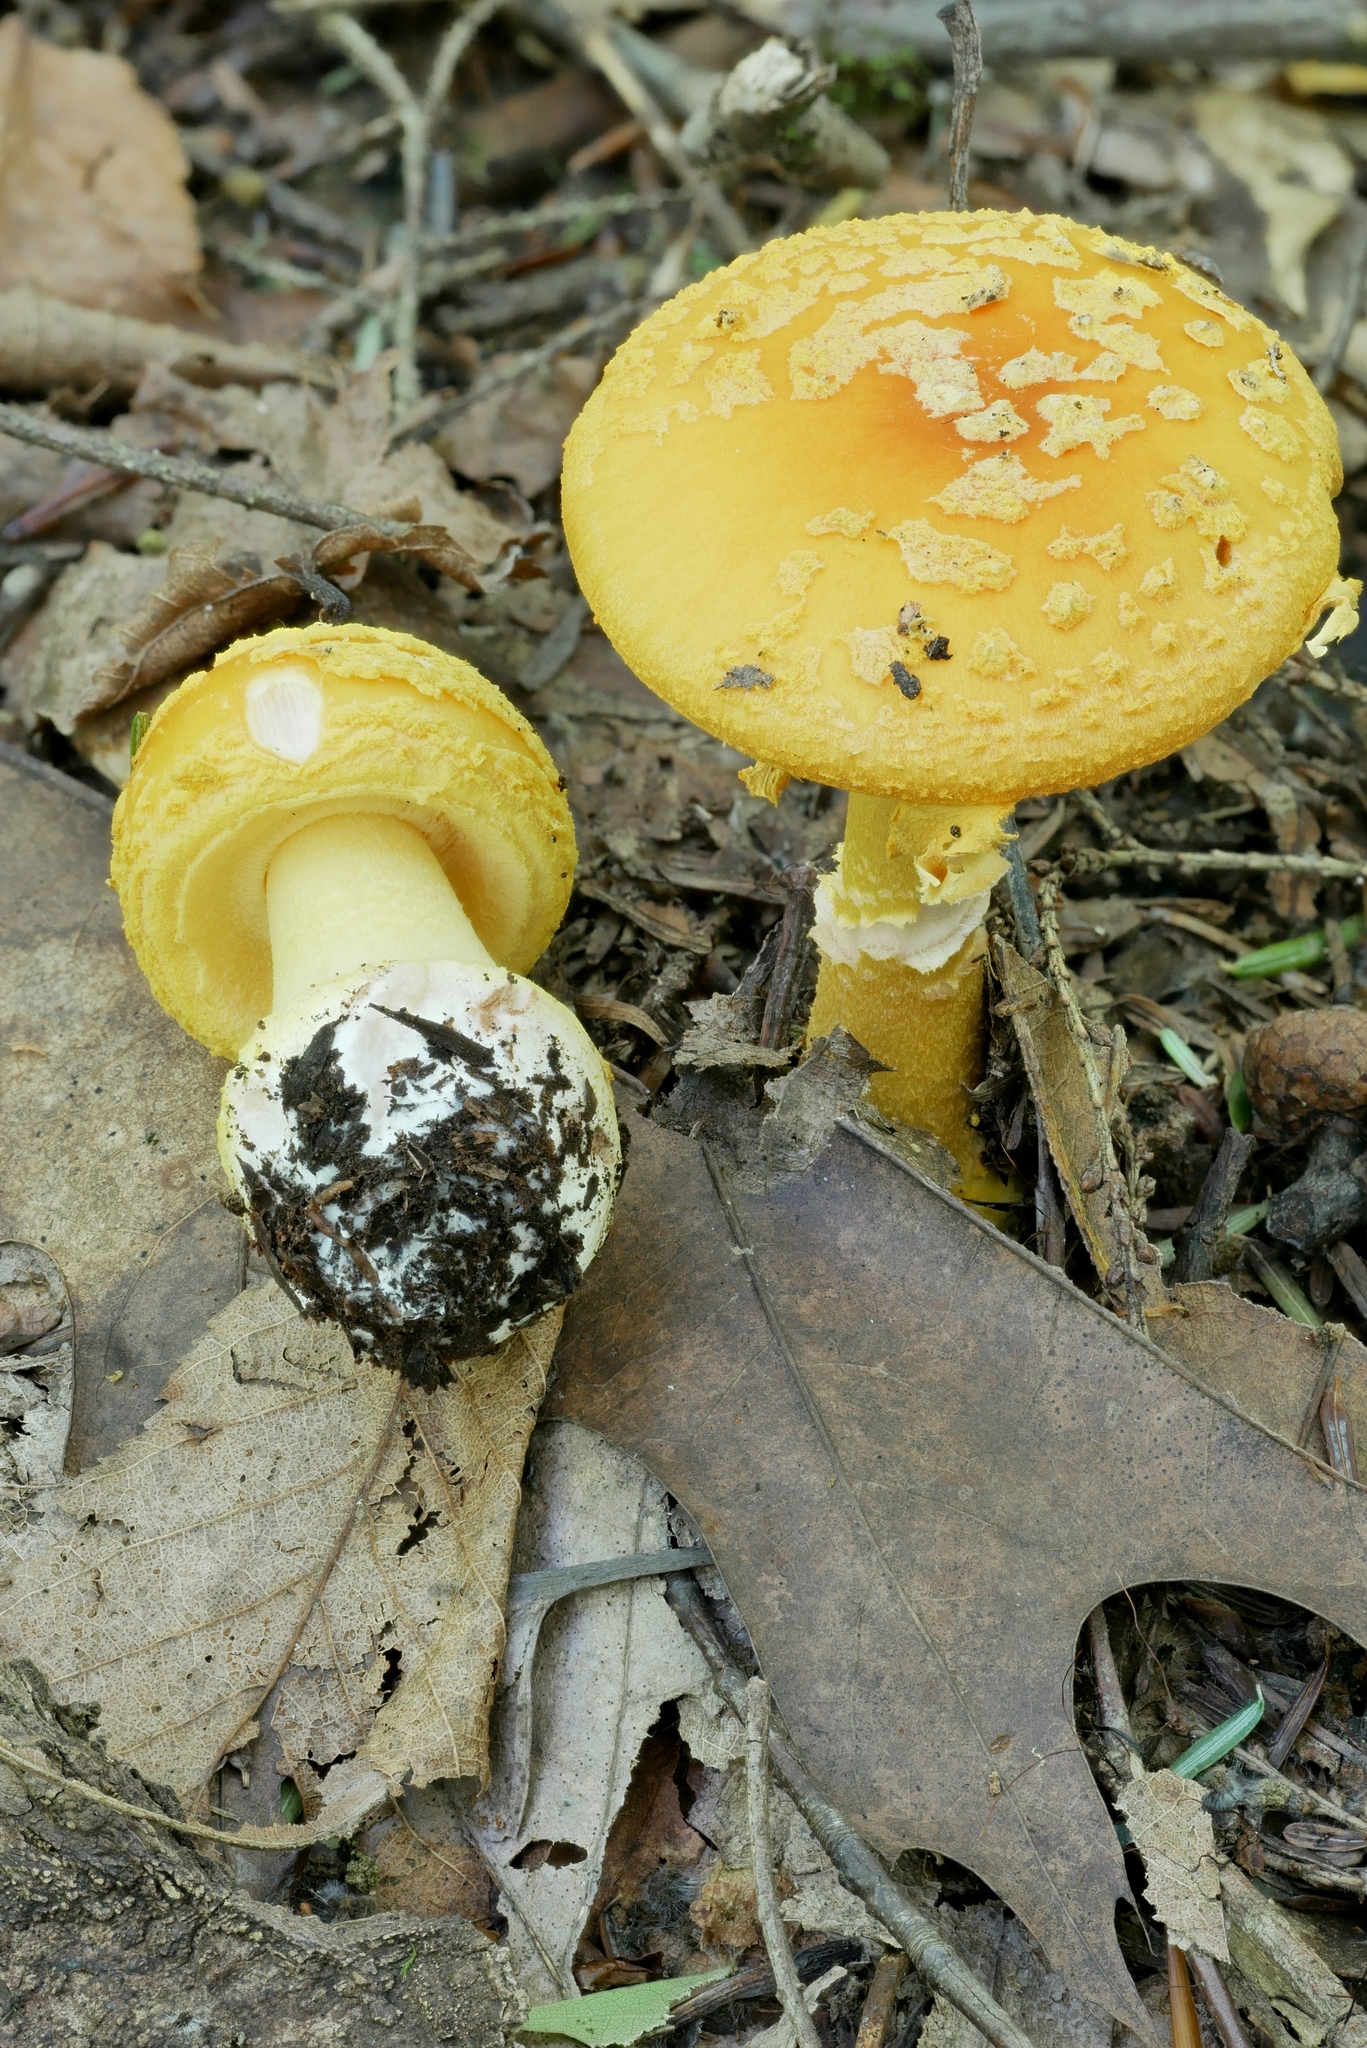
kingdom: Fungi
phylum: Basidiomycota
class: Agaricomycetes
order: Agaricales
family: Amanitaceae
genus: Amanita
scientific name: Amanita flavoconia
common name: Yellow patches
